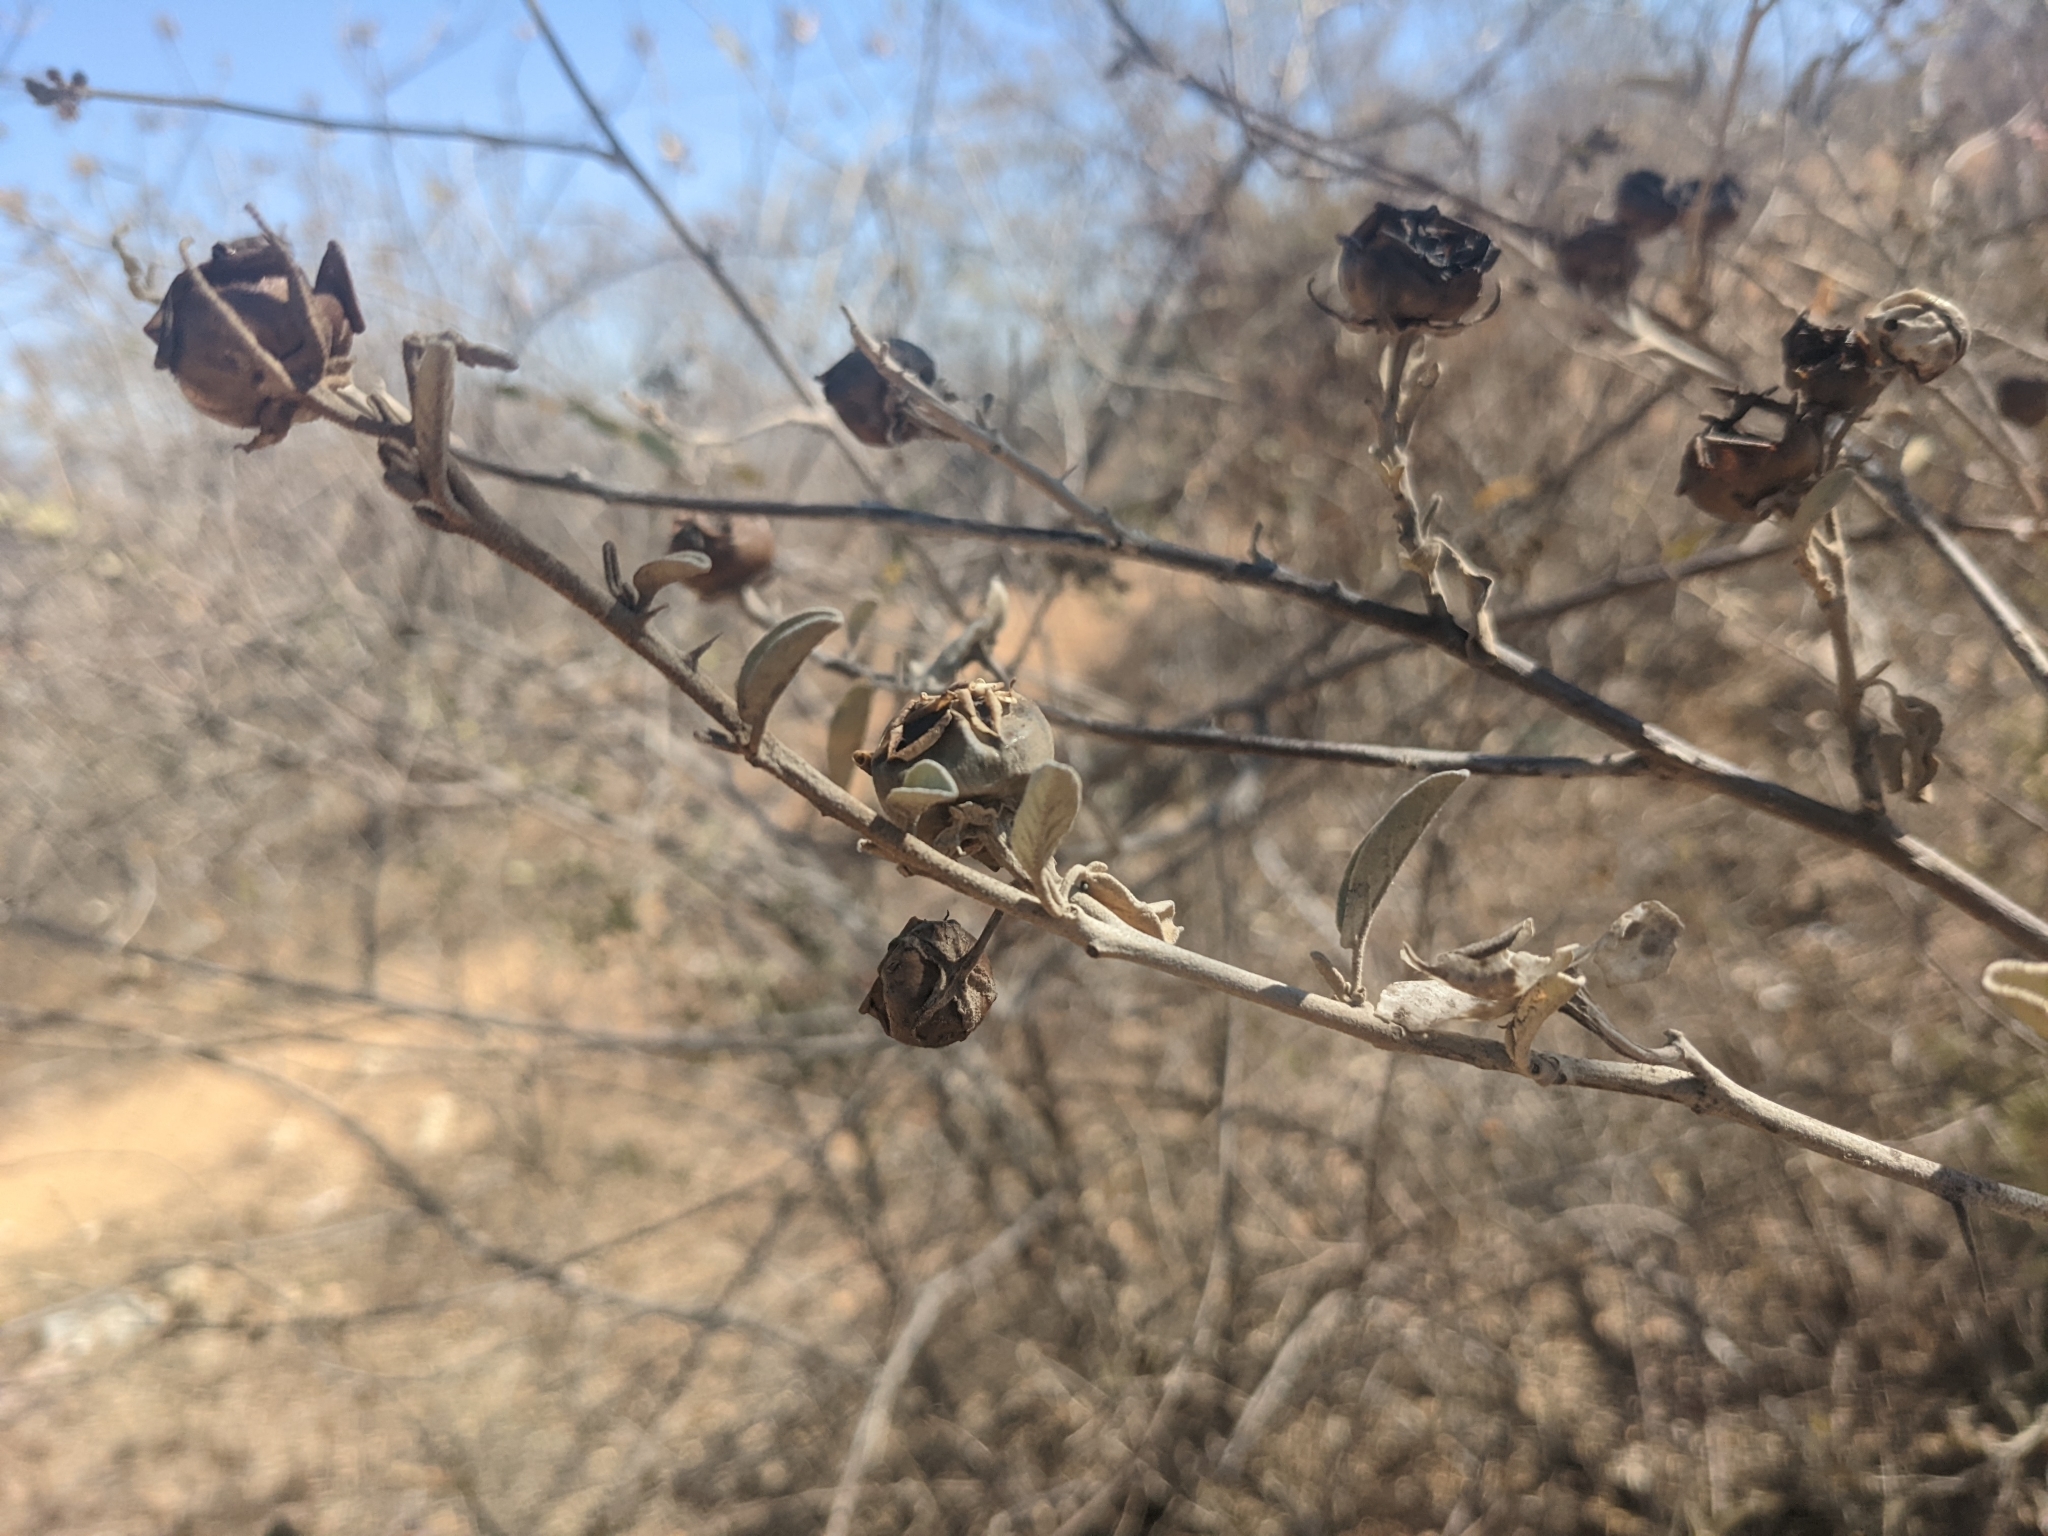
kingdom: Plantae
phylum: Tracheophyta
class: Magnoliopsida
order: Solanales
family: Solanaceae
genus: Solanum
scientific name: Solanum hindsianum
